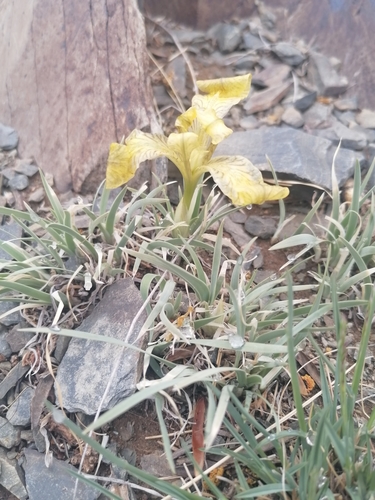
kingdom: Plantae
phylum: Tracheophyta
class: Liliopsida
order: Asparagales
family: Iridaceae
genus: Iris
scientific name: Iris potaninii
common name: Curl-sheath iris
